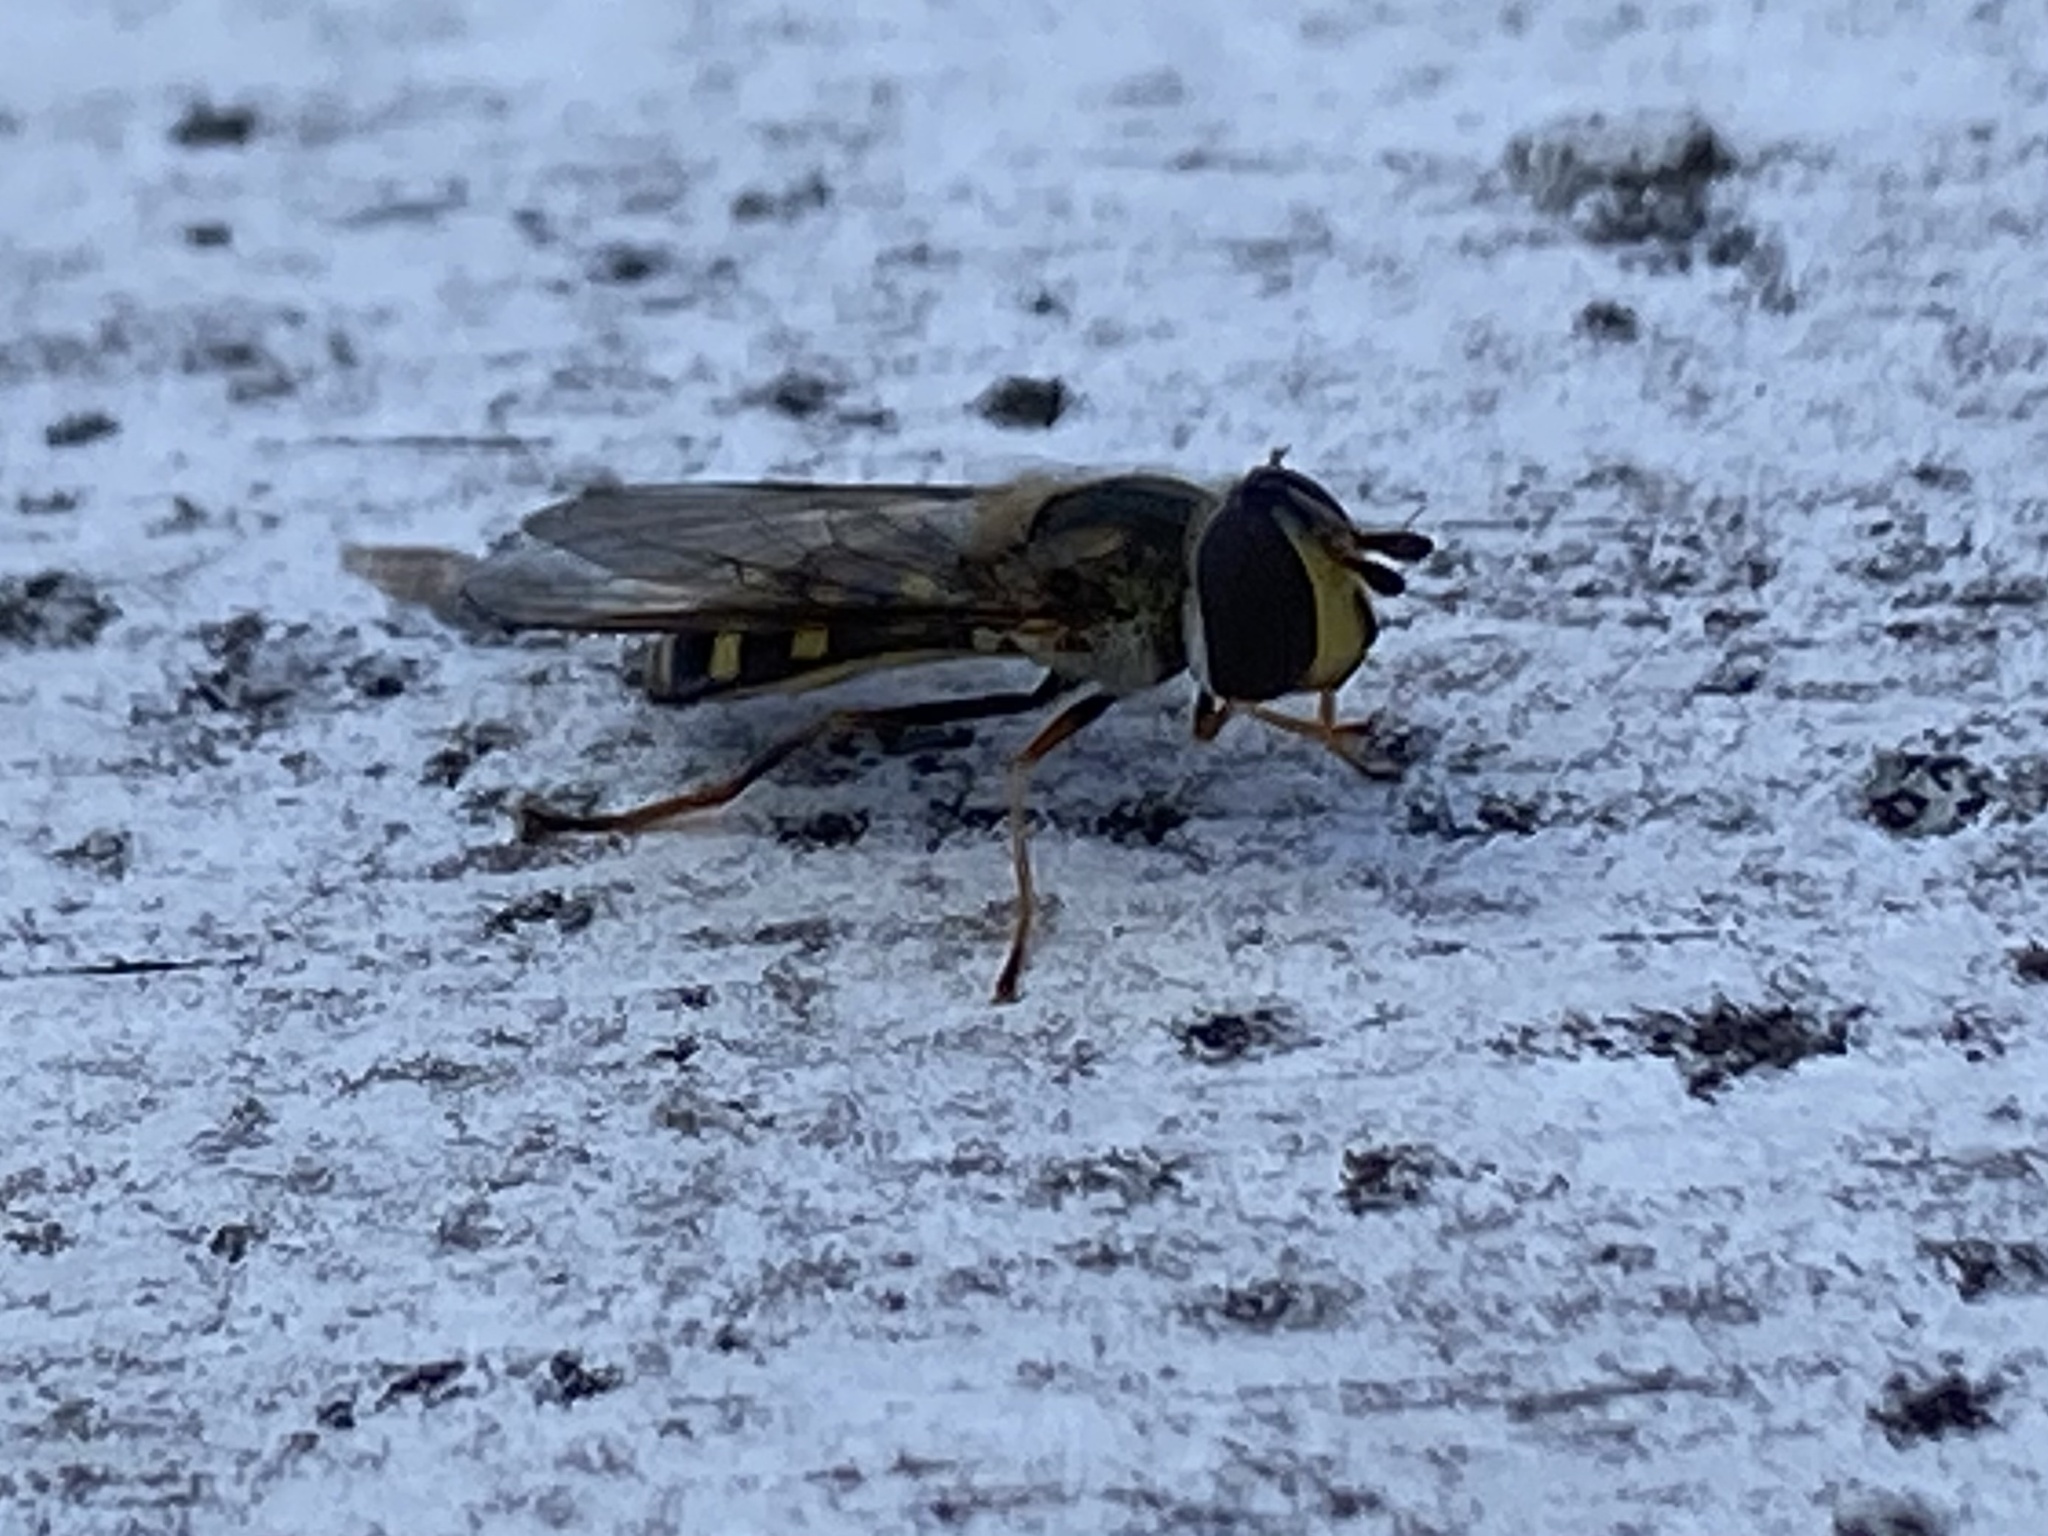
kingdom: Animalia
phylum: Arthropoda
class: Insecta
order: Diptera
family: Syrphidae
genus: Eupeodes
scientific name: Eupeodes
